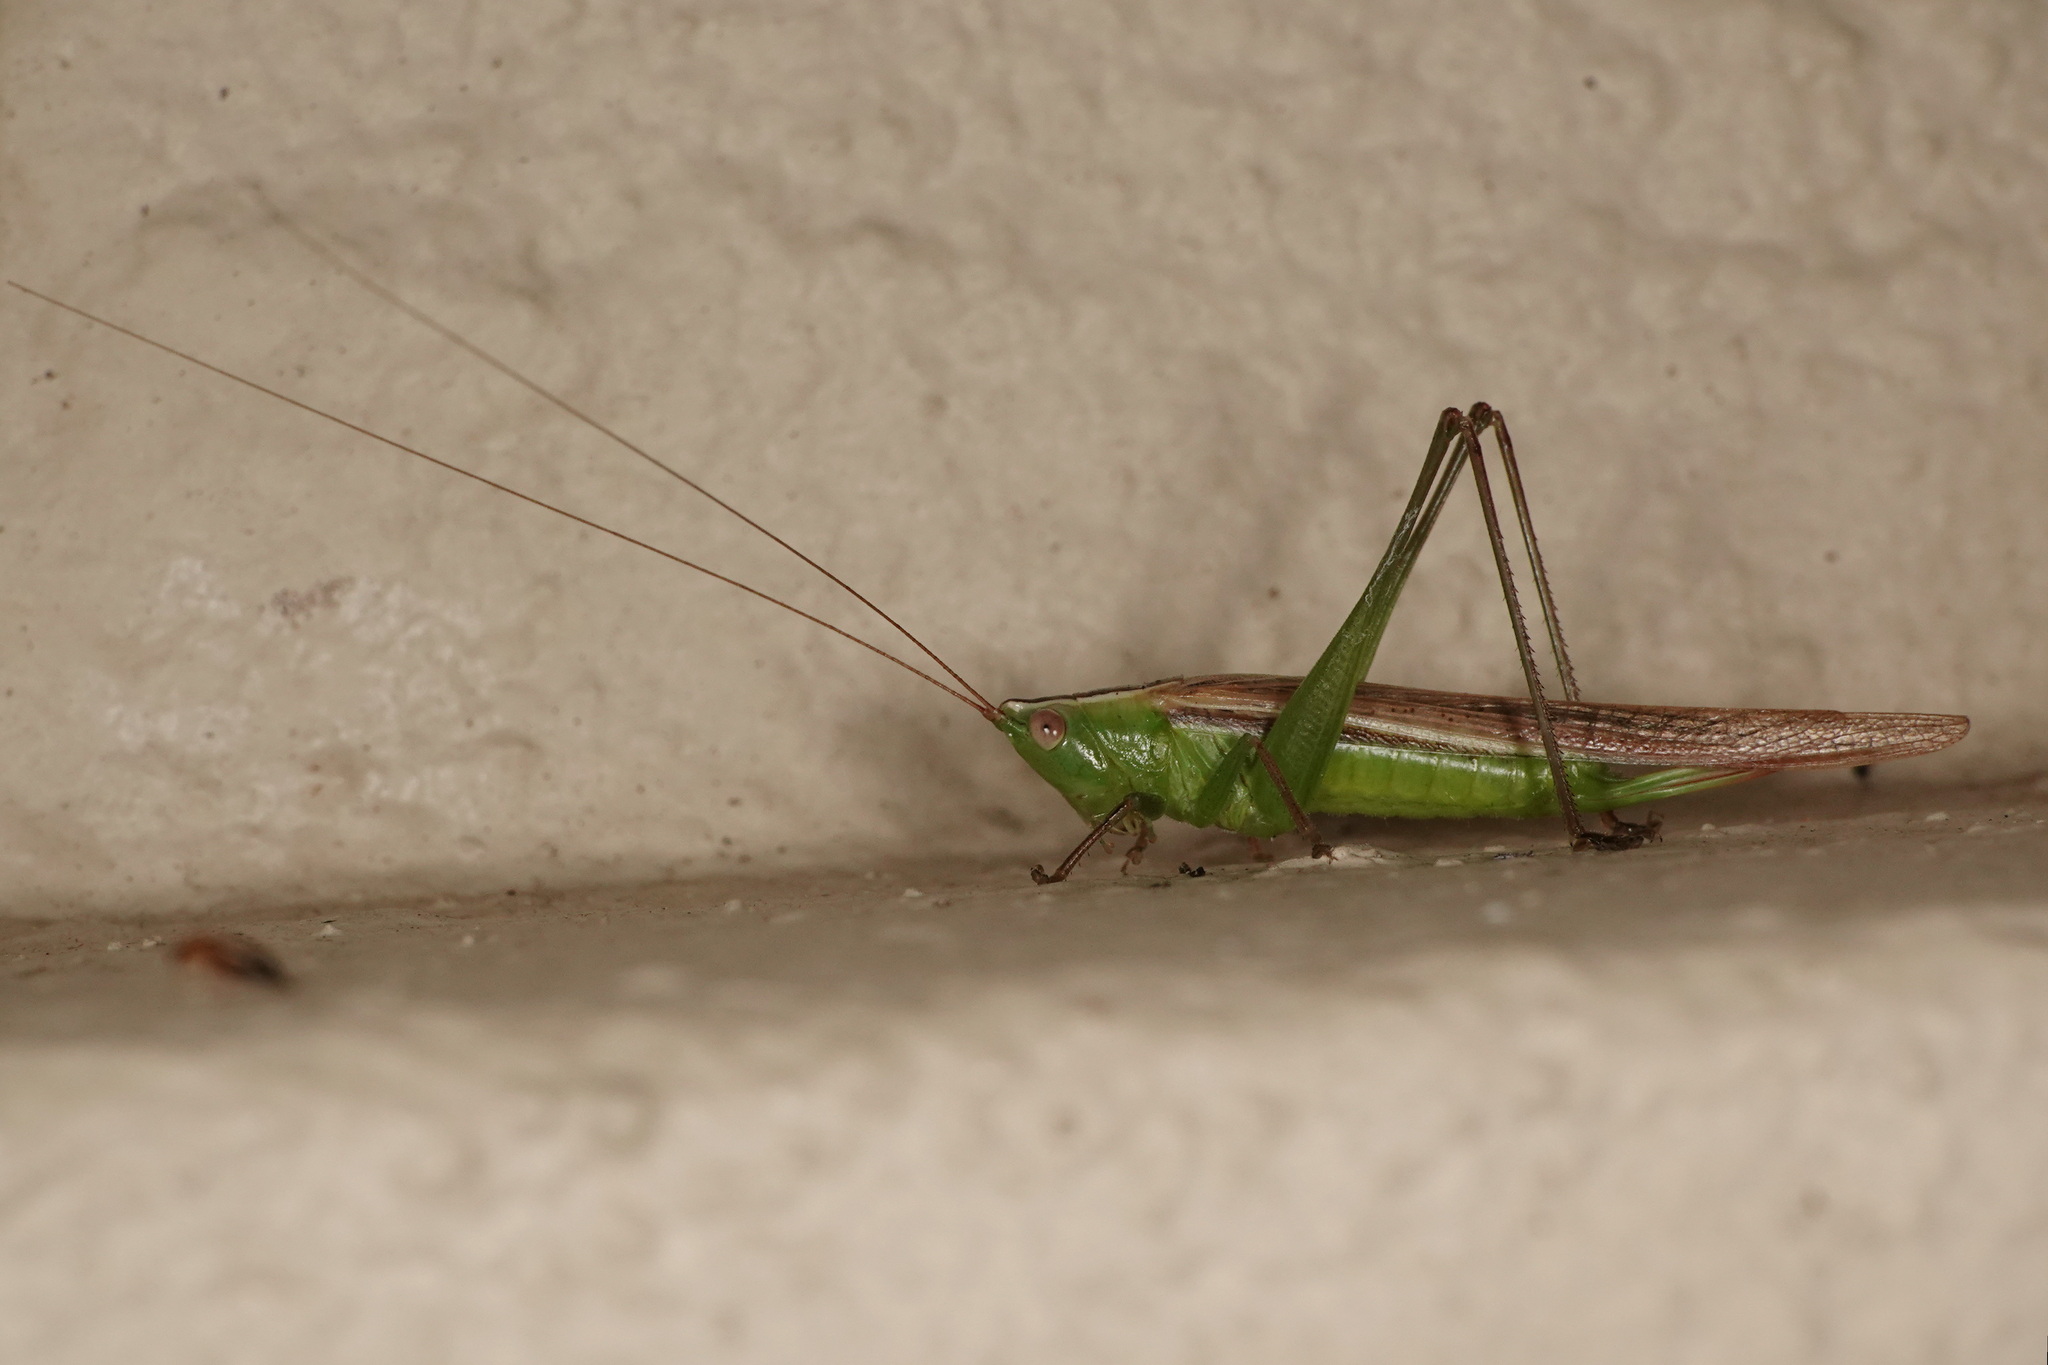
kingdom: Animalia
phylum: Arthropoda
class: Insecta
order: Orthoptera
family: Tettigoniidae
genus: Conocephalus
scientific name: Conocephalus upoluensis
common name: Upolu meadow katydid
